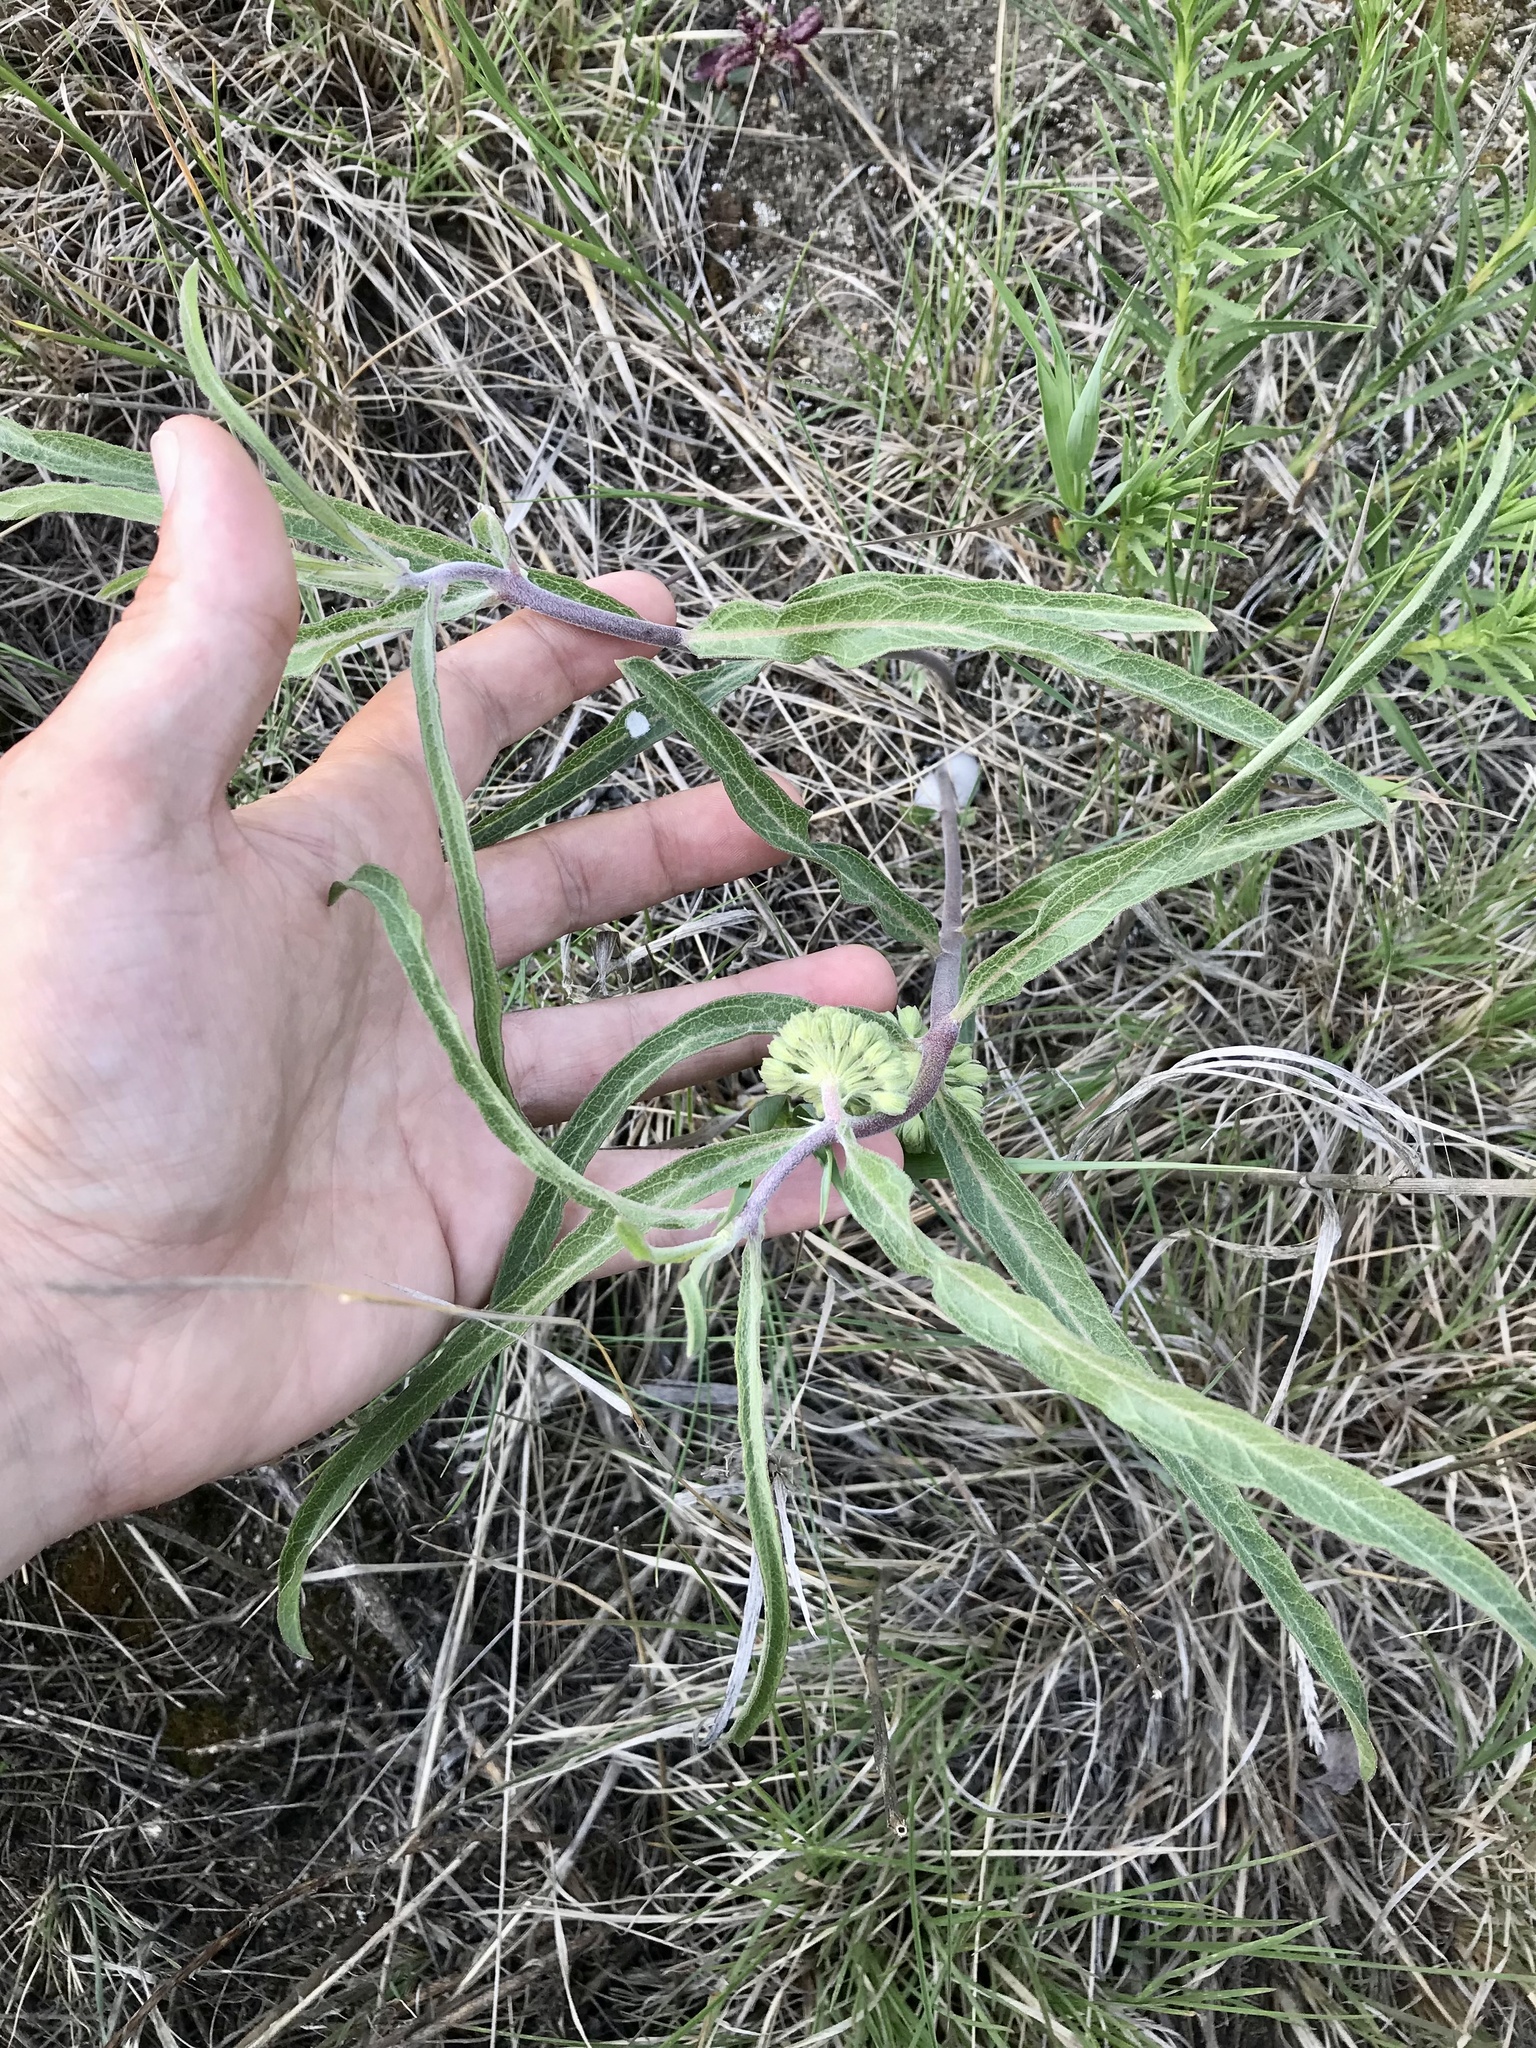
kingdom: Plantae
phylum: Tracheophyta
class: Magnoliopsida
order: Gentianales
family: Apocynaceae
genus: Asclepias
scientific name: Asclepias viridiflora
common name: Green comet milkweed
